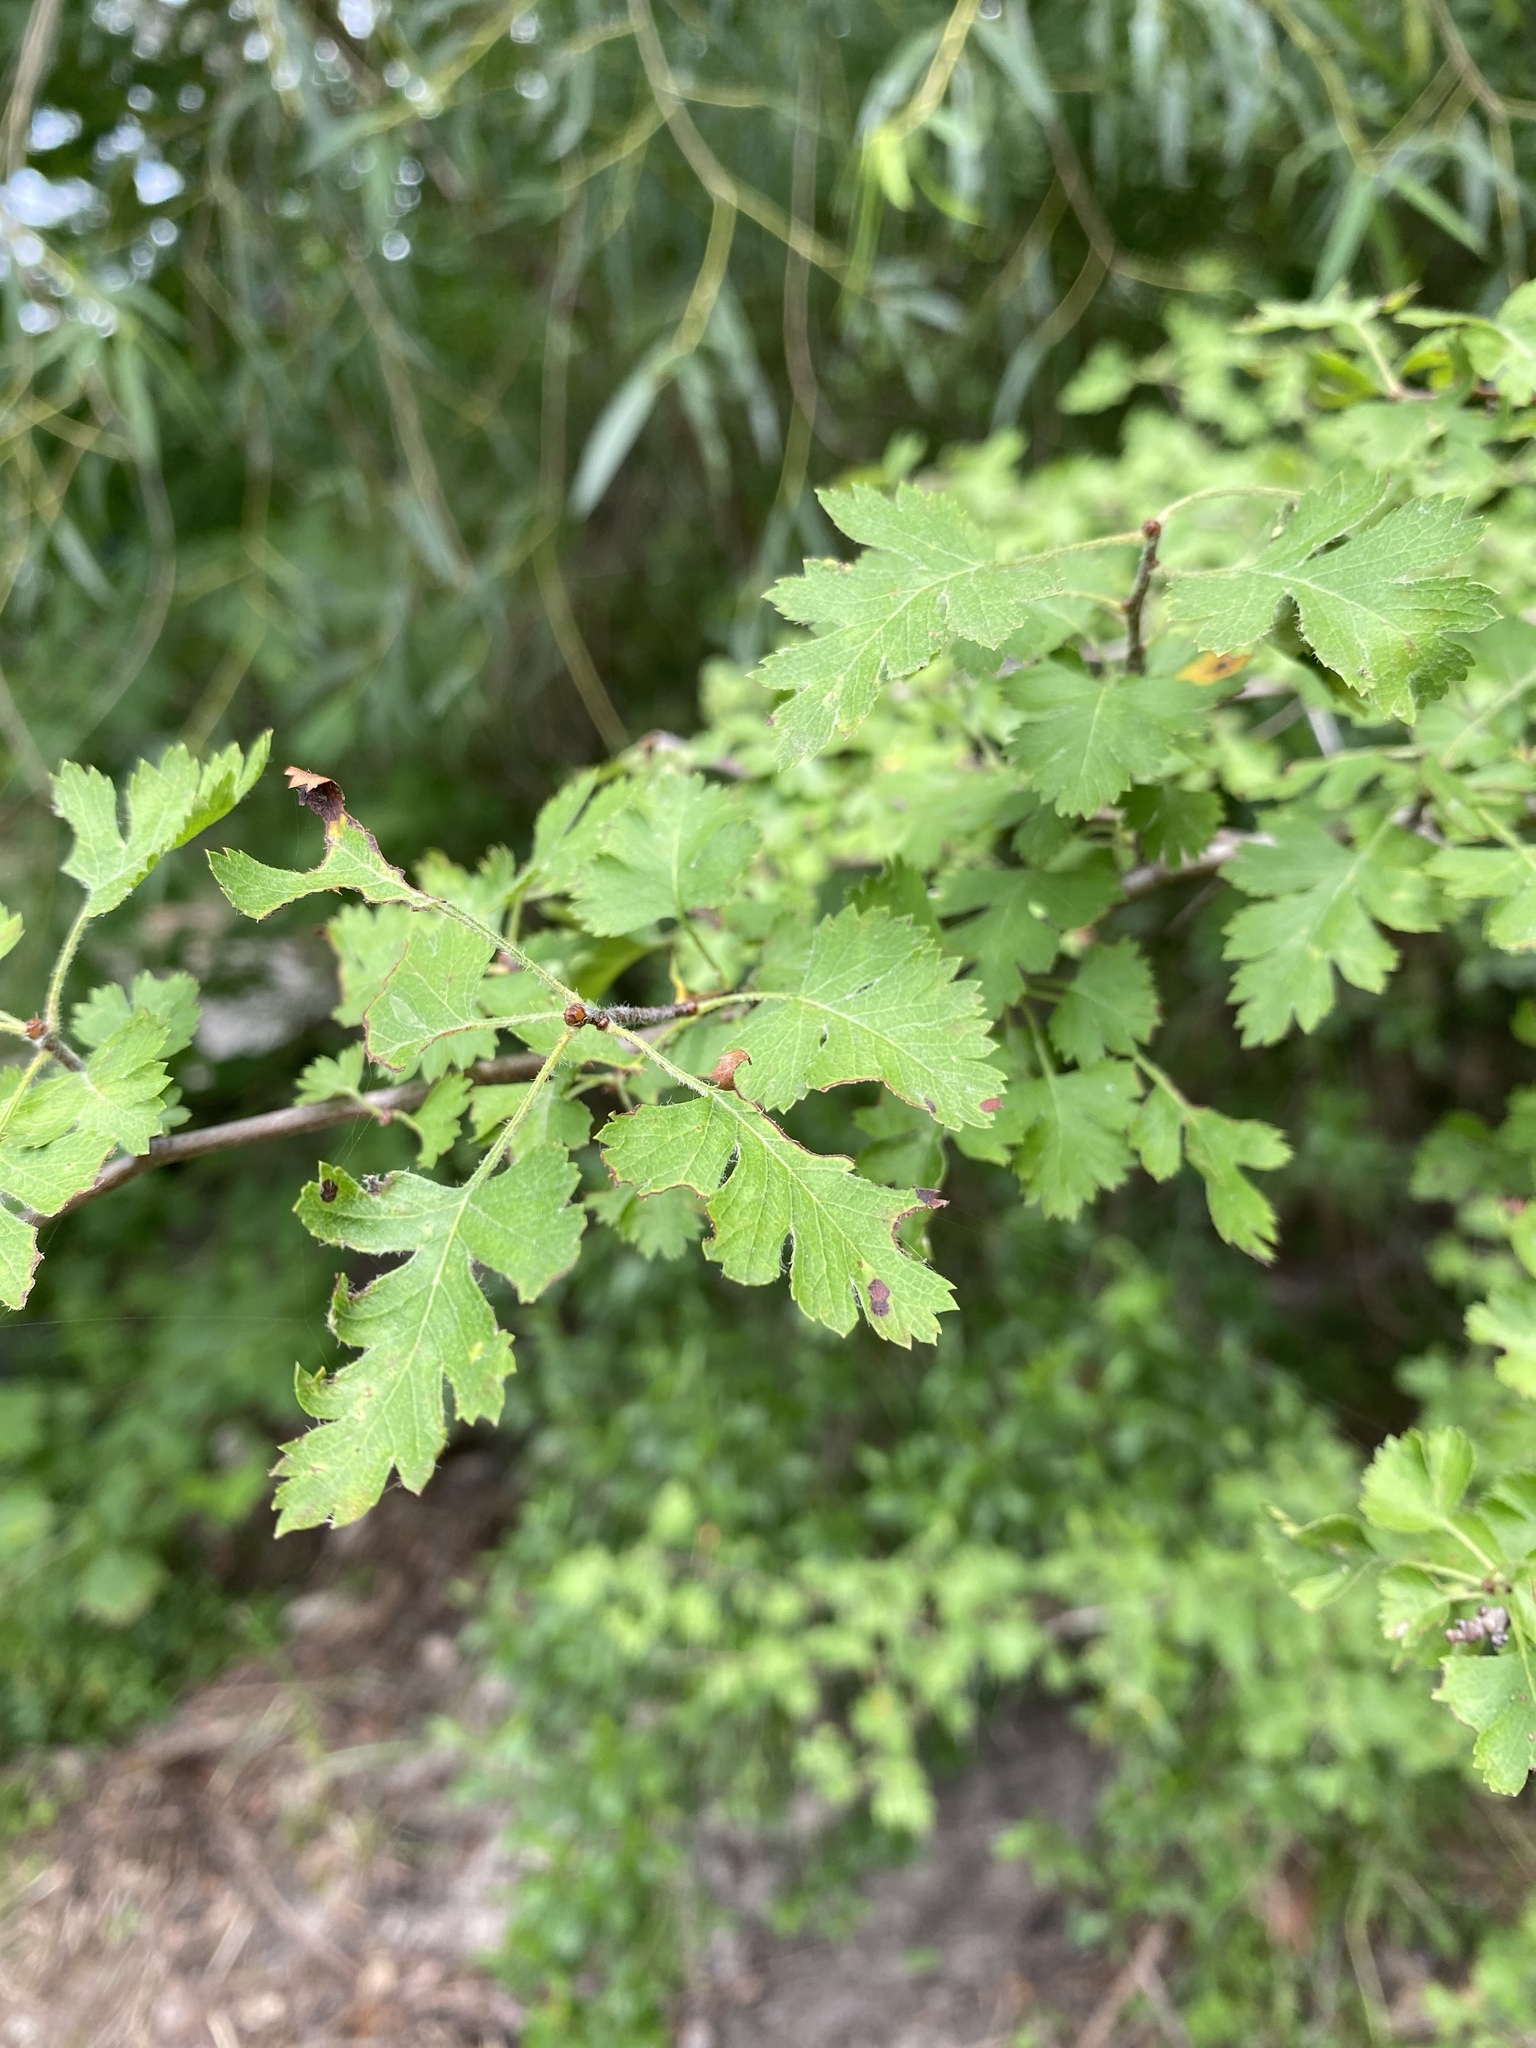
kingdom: Plantae
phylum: Tracheophyta
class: Magnoliopsida
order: Rosales
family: Rosaceae
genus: Crataegus
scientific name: Crataegus marshallii
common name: Parsley-hawthorn
